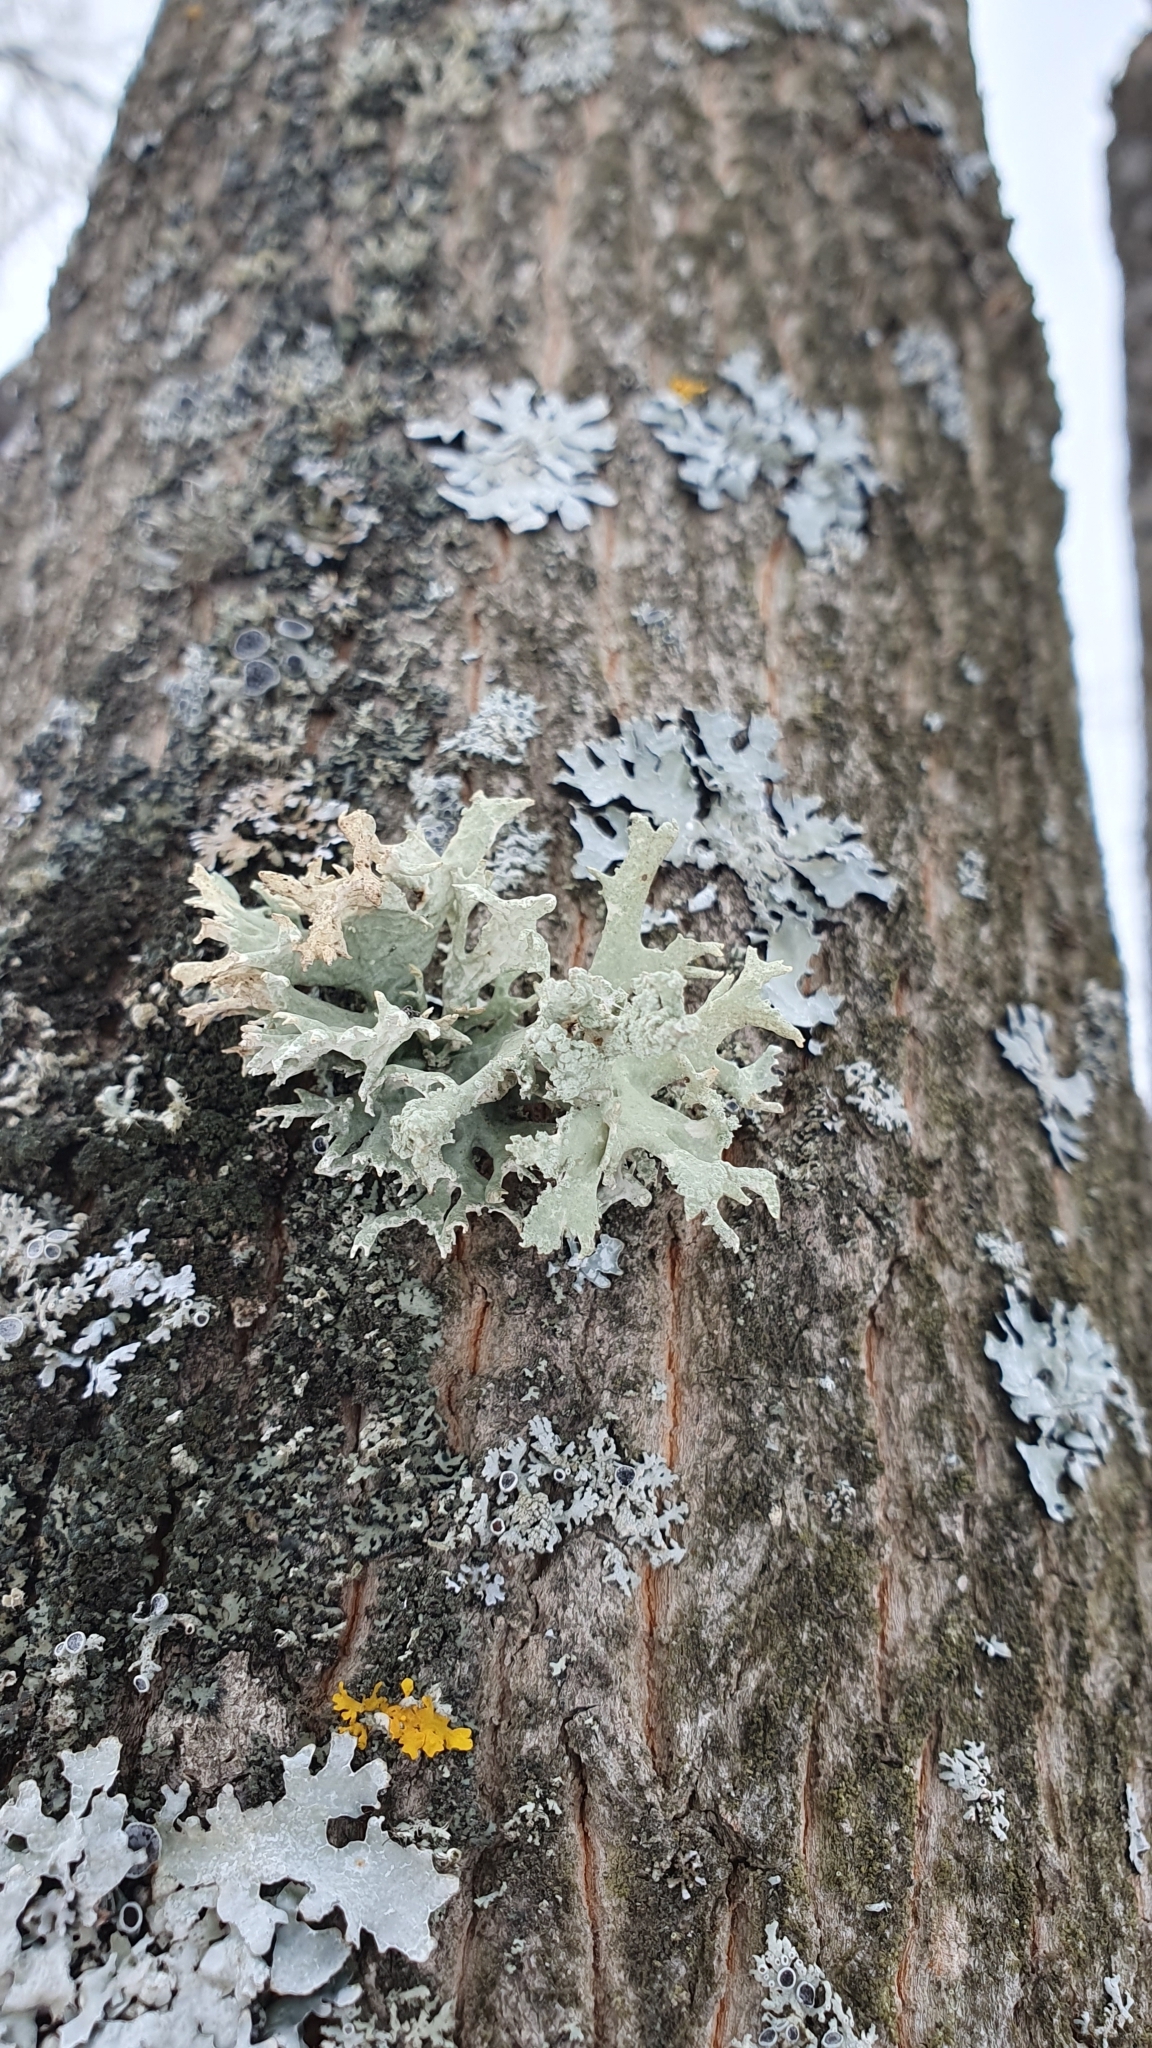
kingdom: Fungi
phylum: Ascomycota
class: Lecanoromycetes
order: Lecanorales
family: Parmeliaceae
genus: Evernia
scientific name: Evernia prunastri
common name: Oak moss
